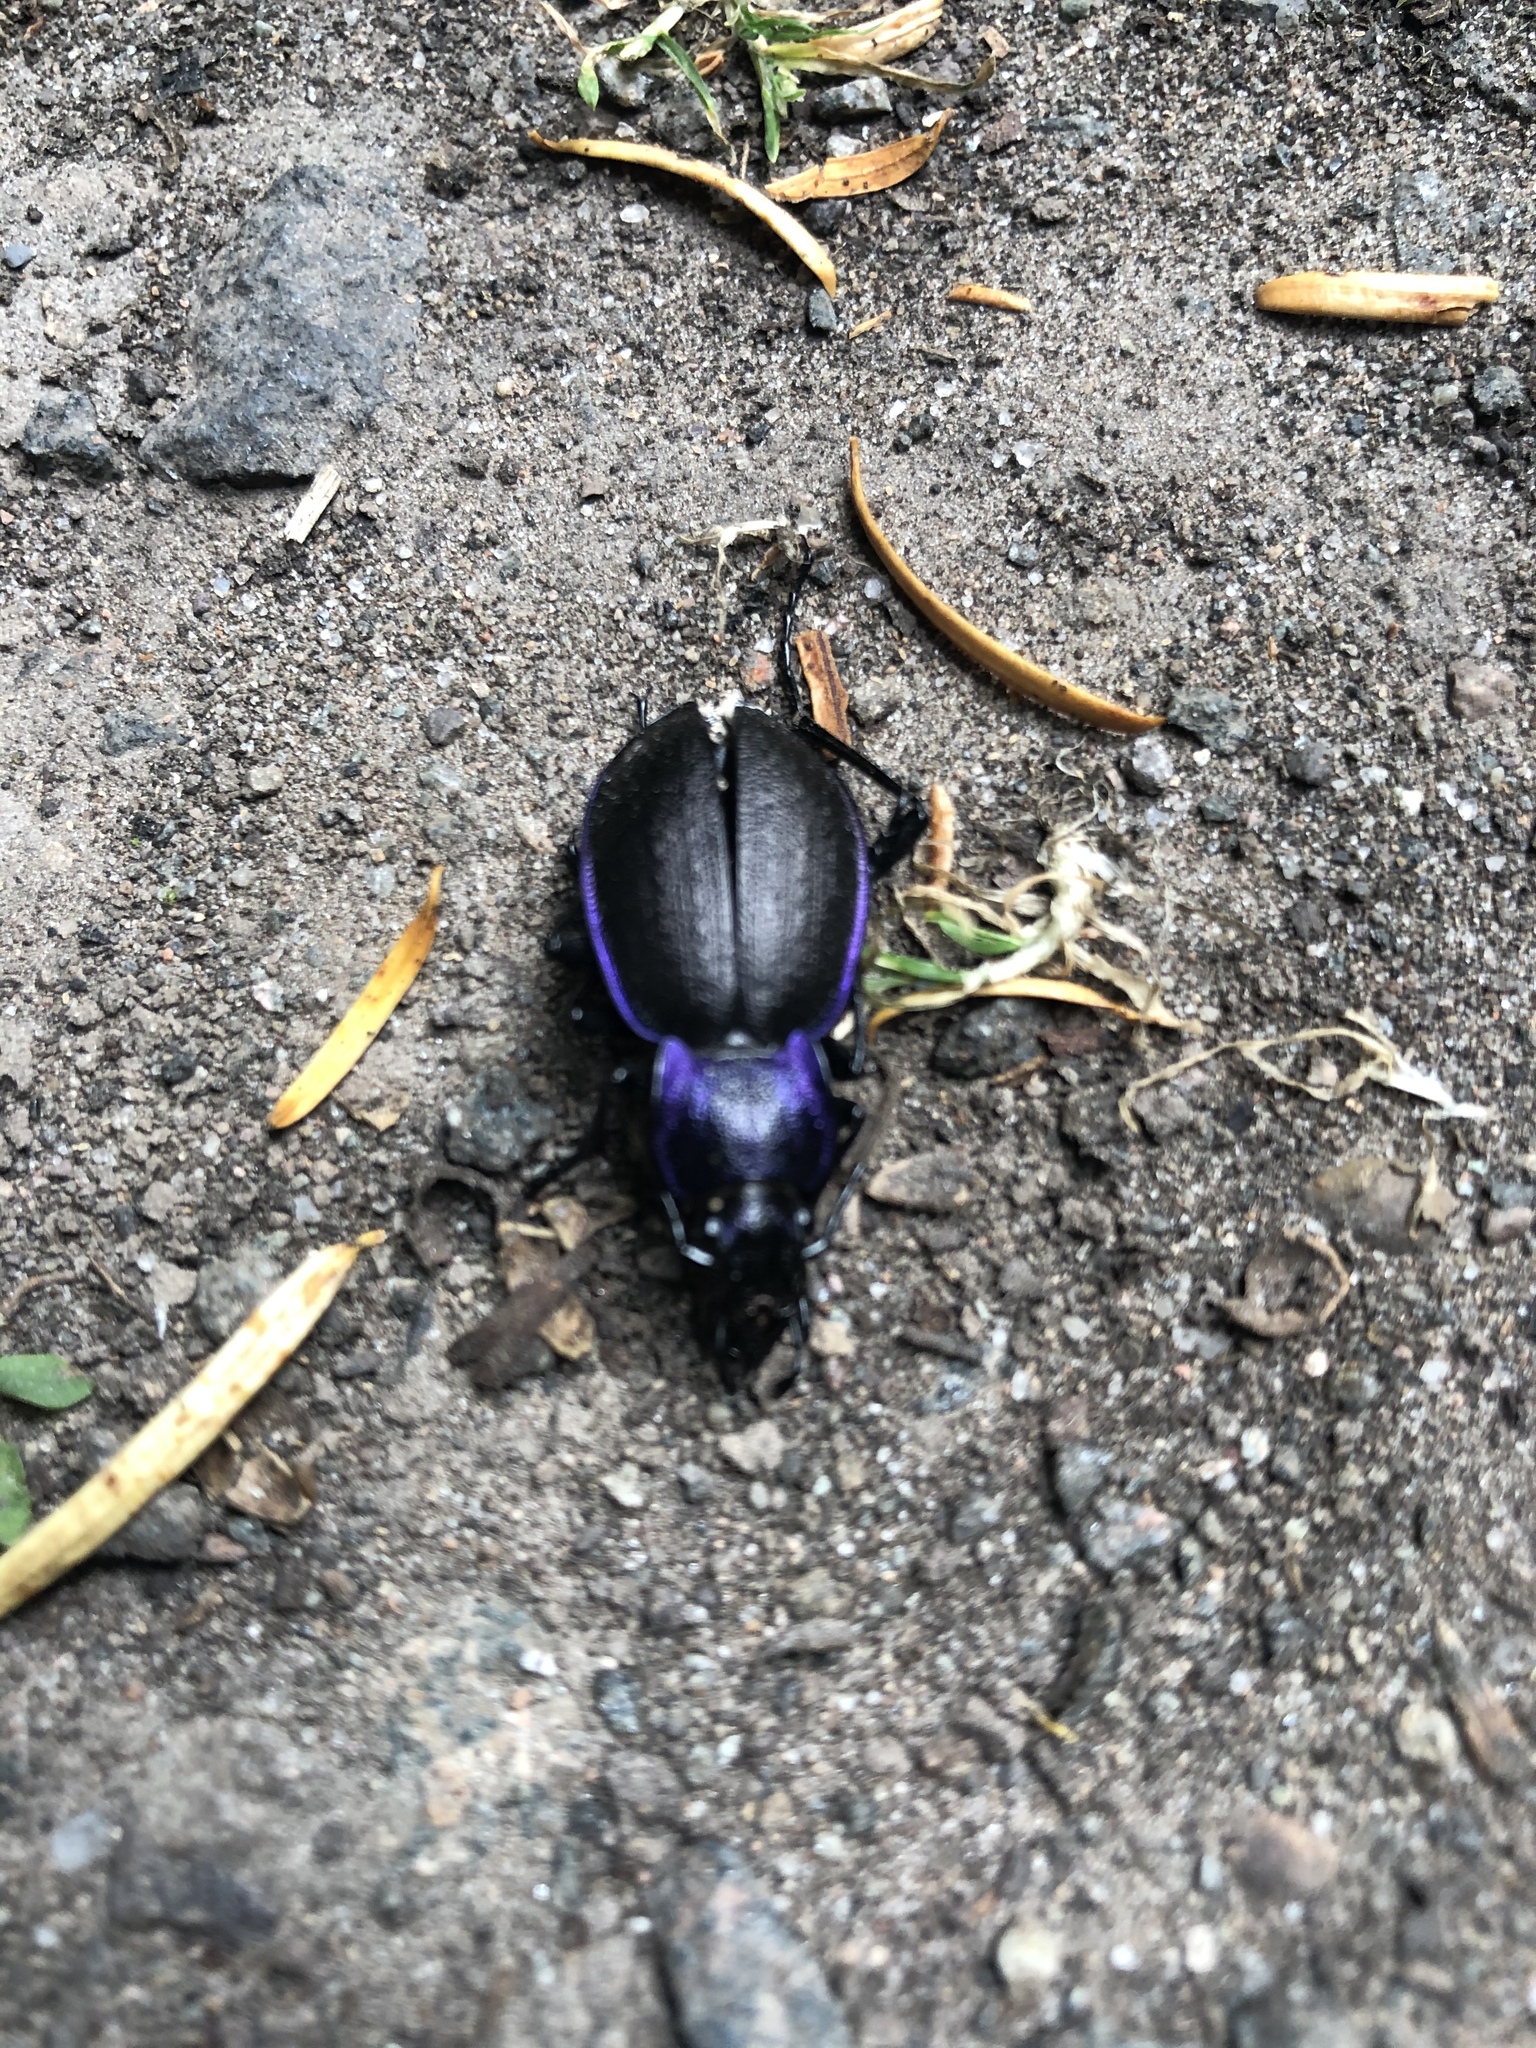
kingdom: Animalia
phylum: Arthropoda
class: Insecta
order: Coleoptera
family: Carabidae
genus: Carabus
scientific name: Carabus problematicus
